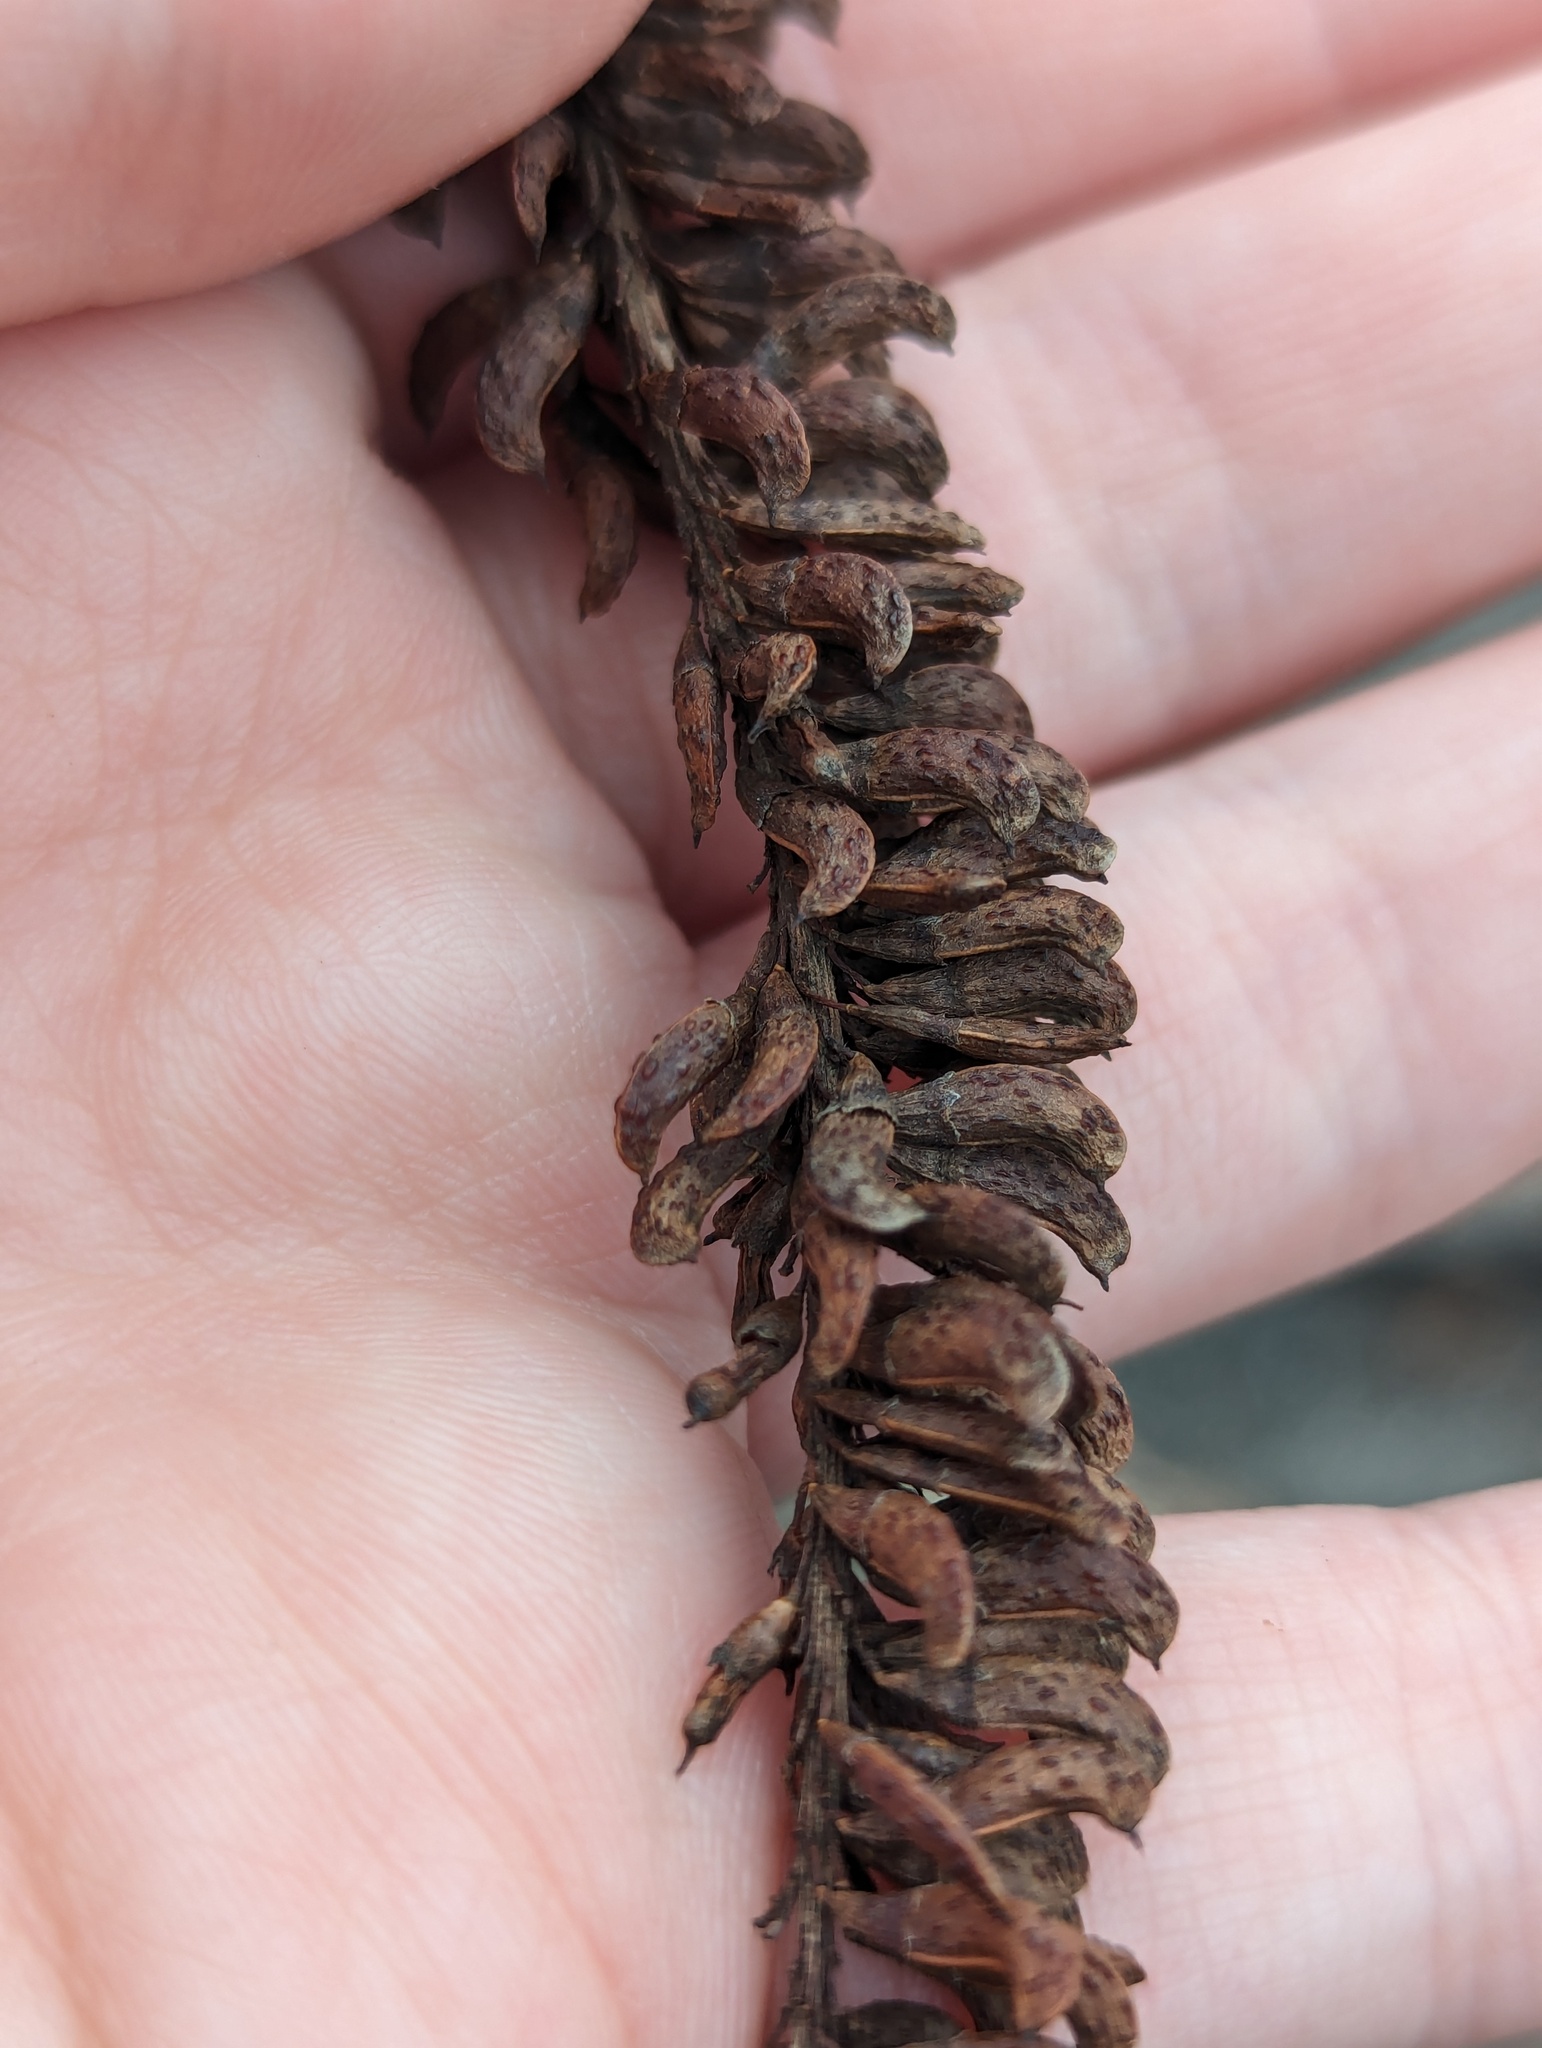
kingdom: Plantae
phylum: Tracheophyta
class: Magnoliopsida
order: Fabales
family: Fabaceae
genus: Amorpha
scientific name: Amorpha fruticosa
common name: False indigo
